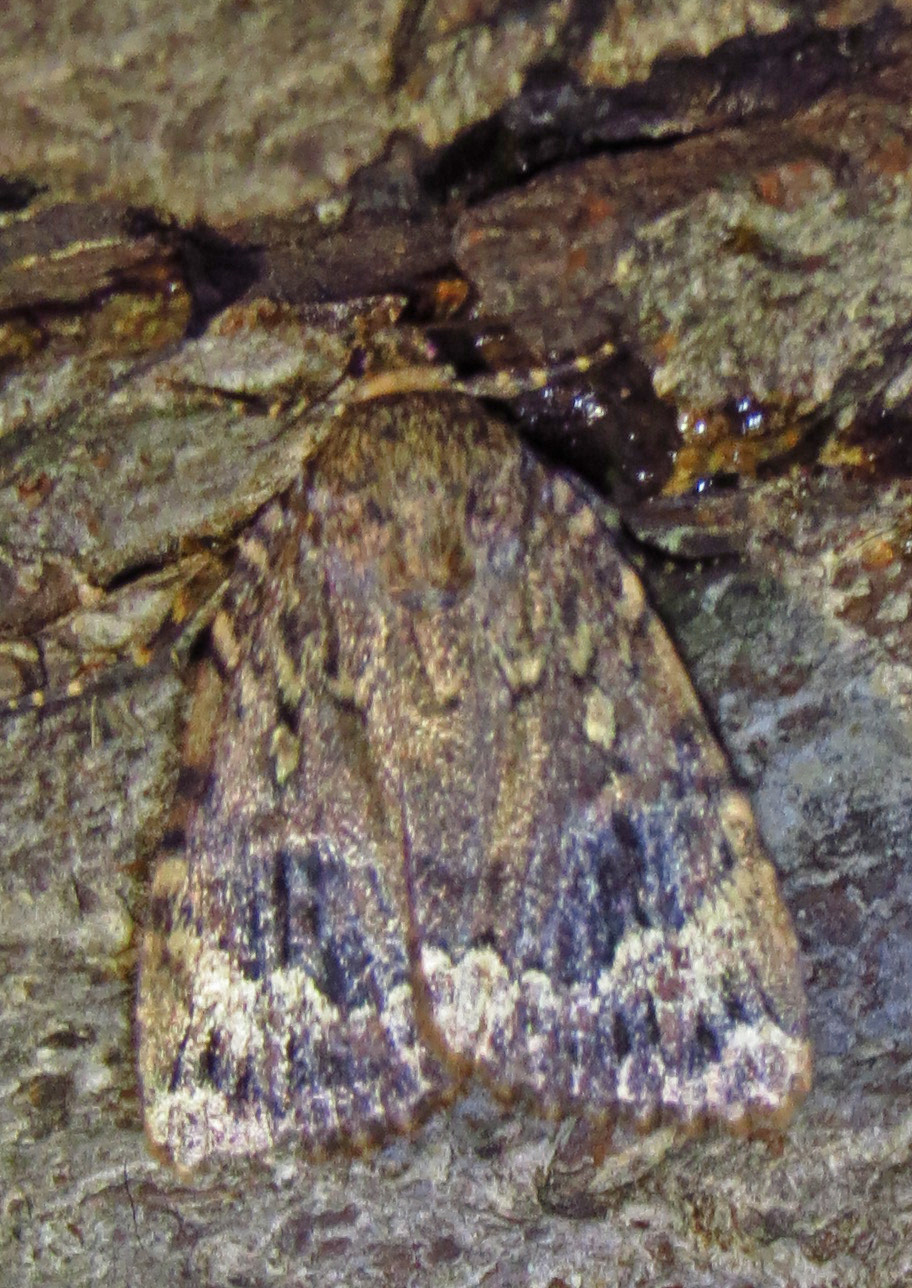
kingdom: Animalia
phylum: Arthropoda
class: Insecta
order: Lepidoptera
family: Noctuidae
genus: Amphipyra
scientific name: Amphipyra pyramidoides
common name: American copper underwing
